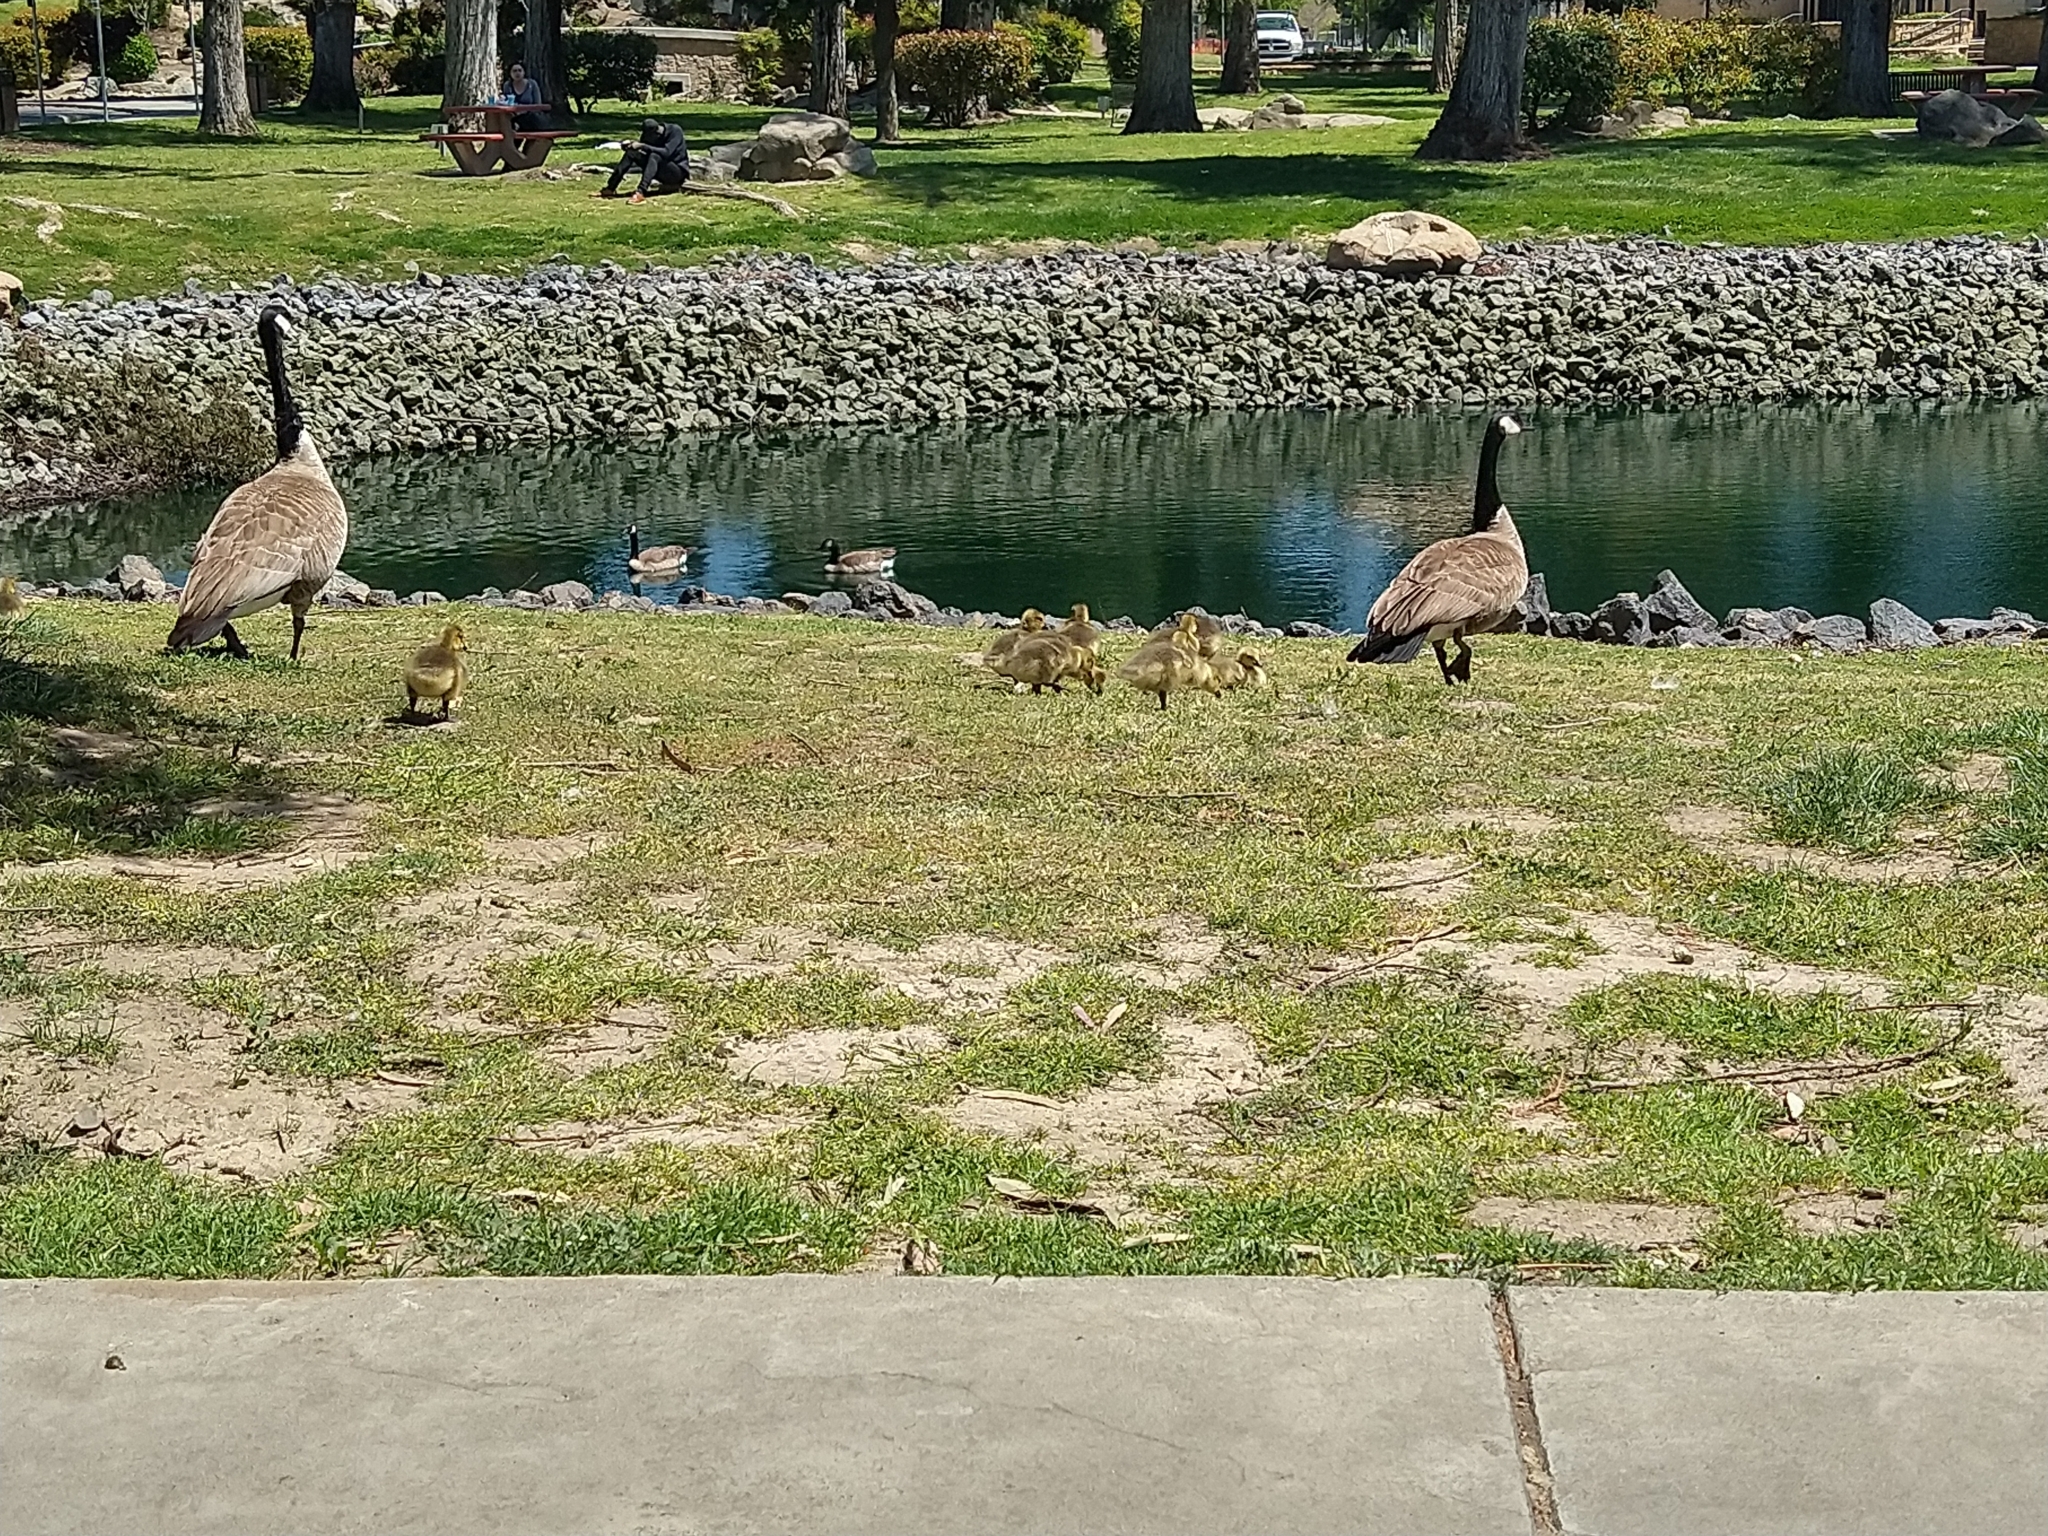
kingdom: Animalia
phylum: Chordata
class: Aves
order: Anseriformes
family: Anatidae
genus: Branta
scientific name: Branta canadensis
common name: Canada goose
